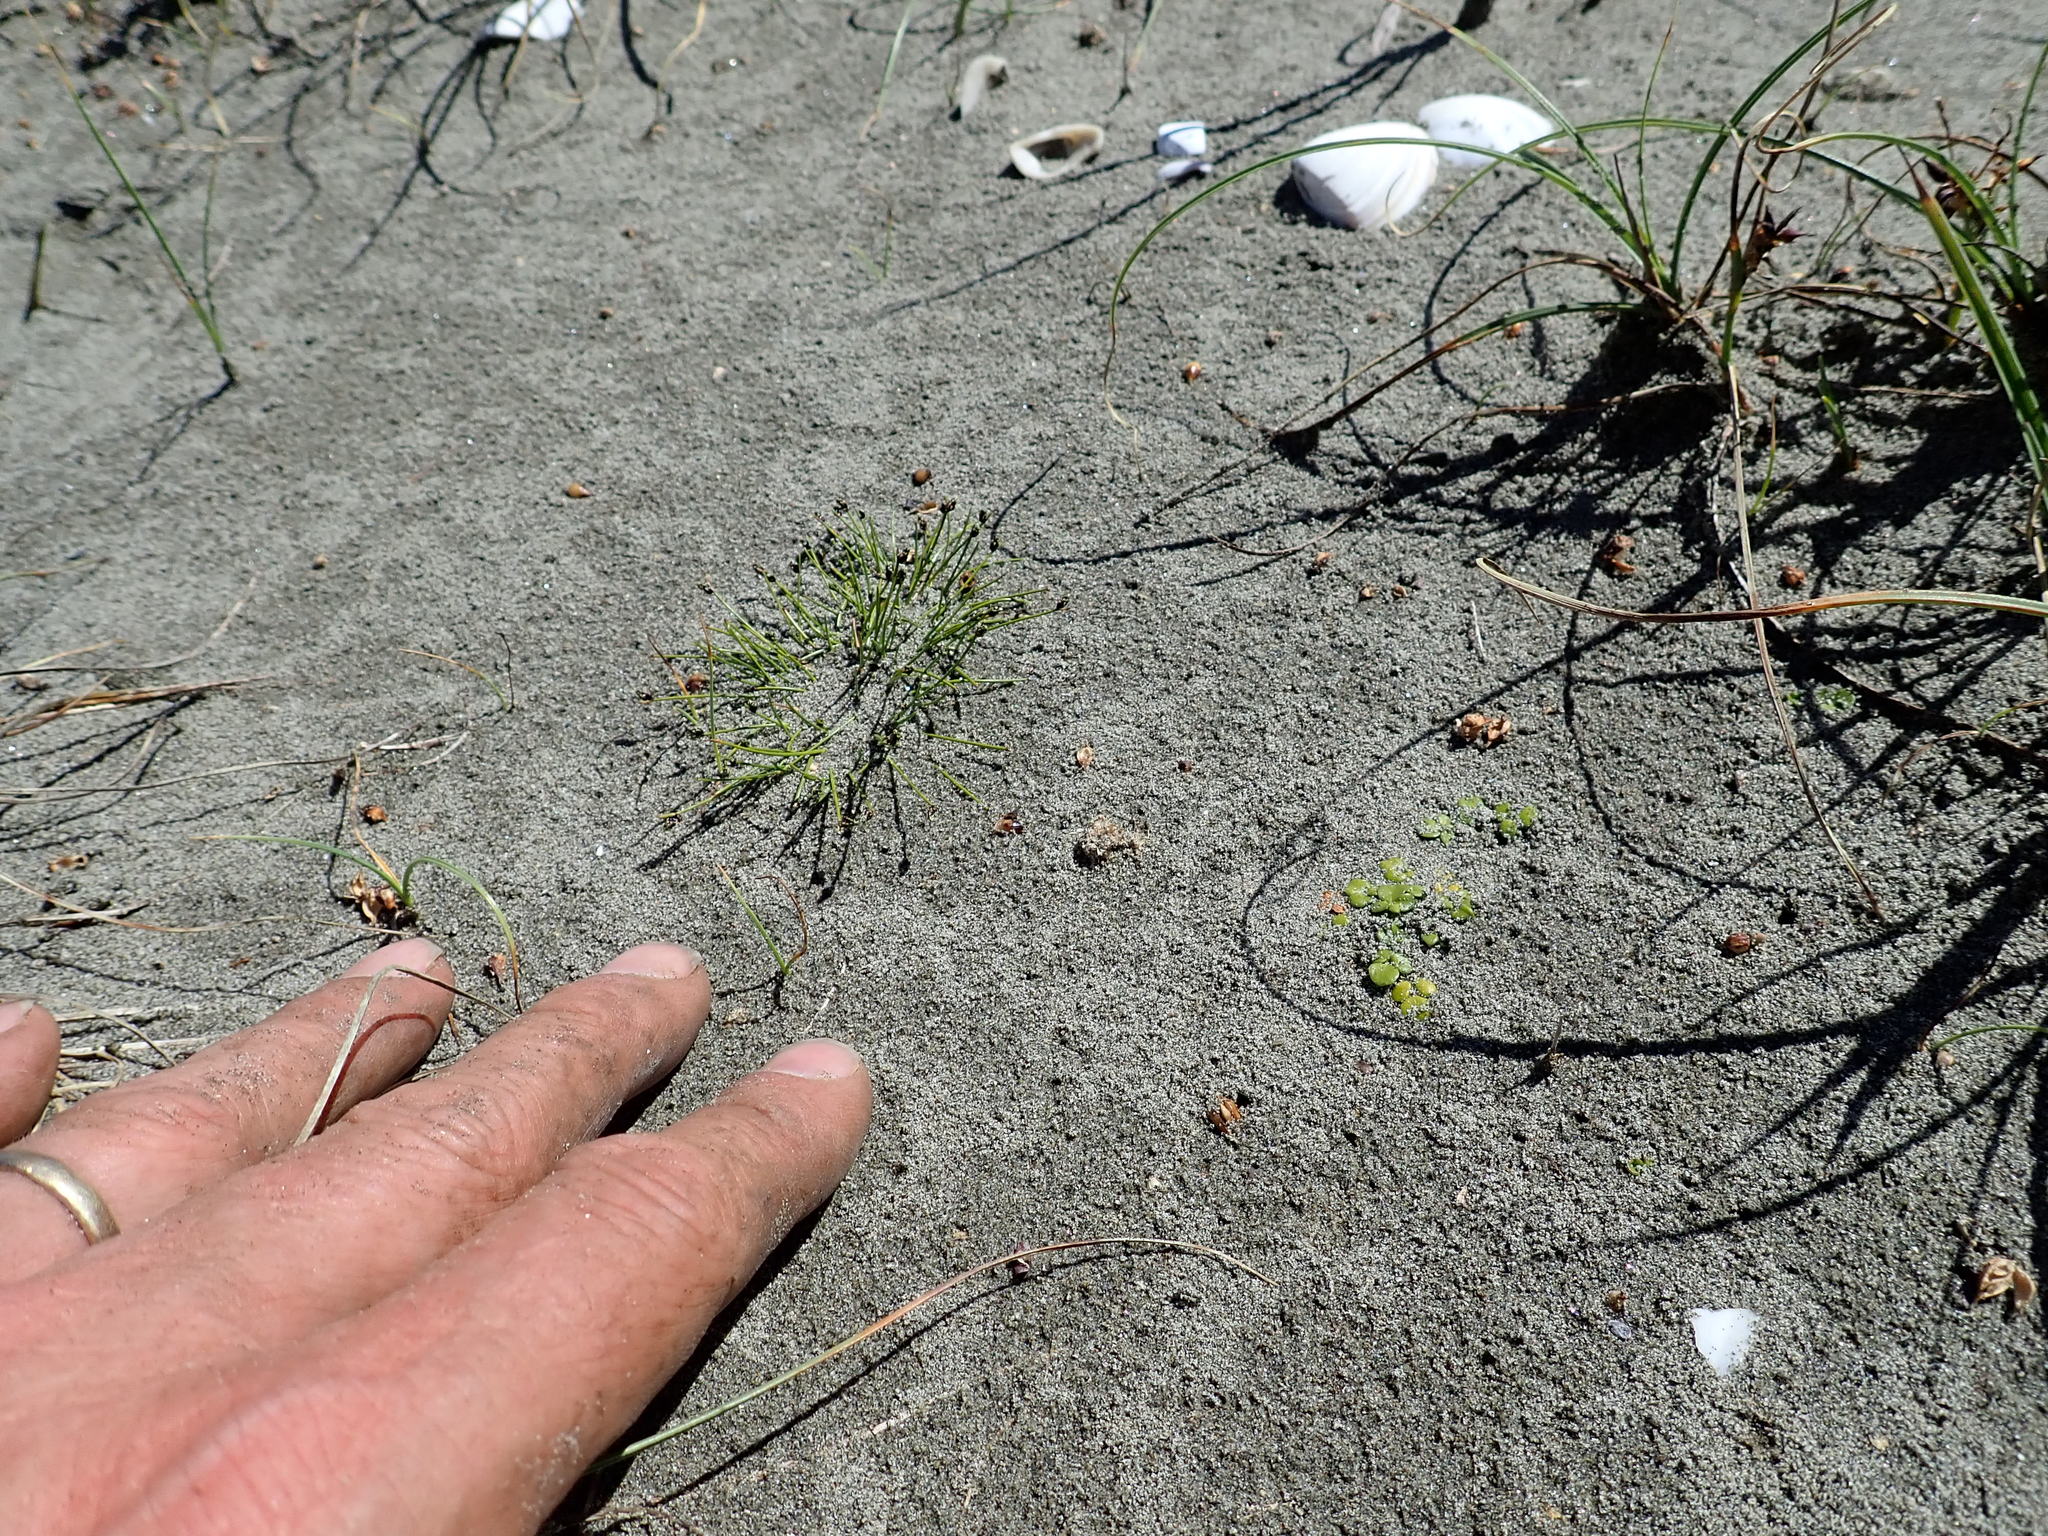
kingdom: Plantae
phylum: Tracheophyta
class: Magnoliopsida
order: Ranunculales
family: Ranunculaceae
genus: Ranunculus
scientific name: Ranunculus acaulis
